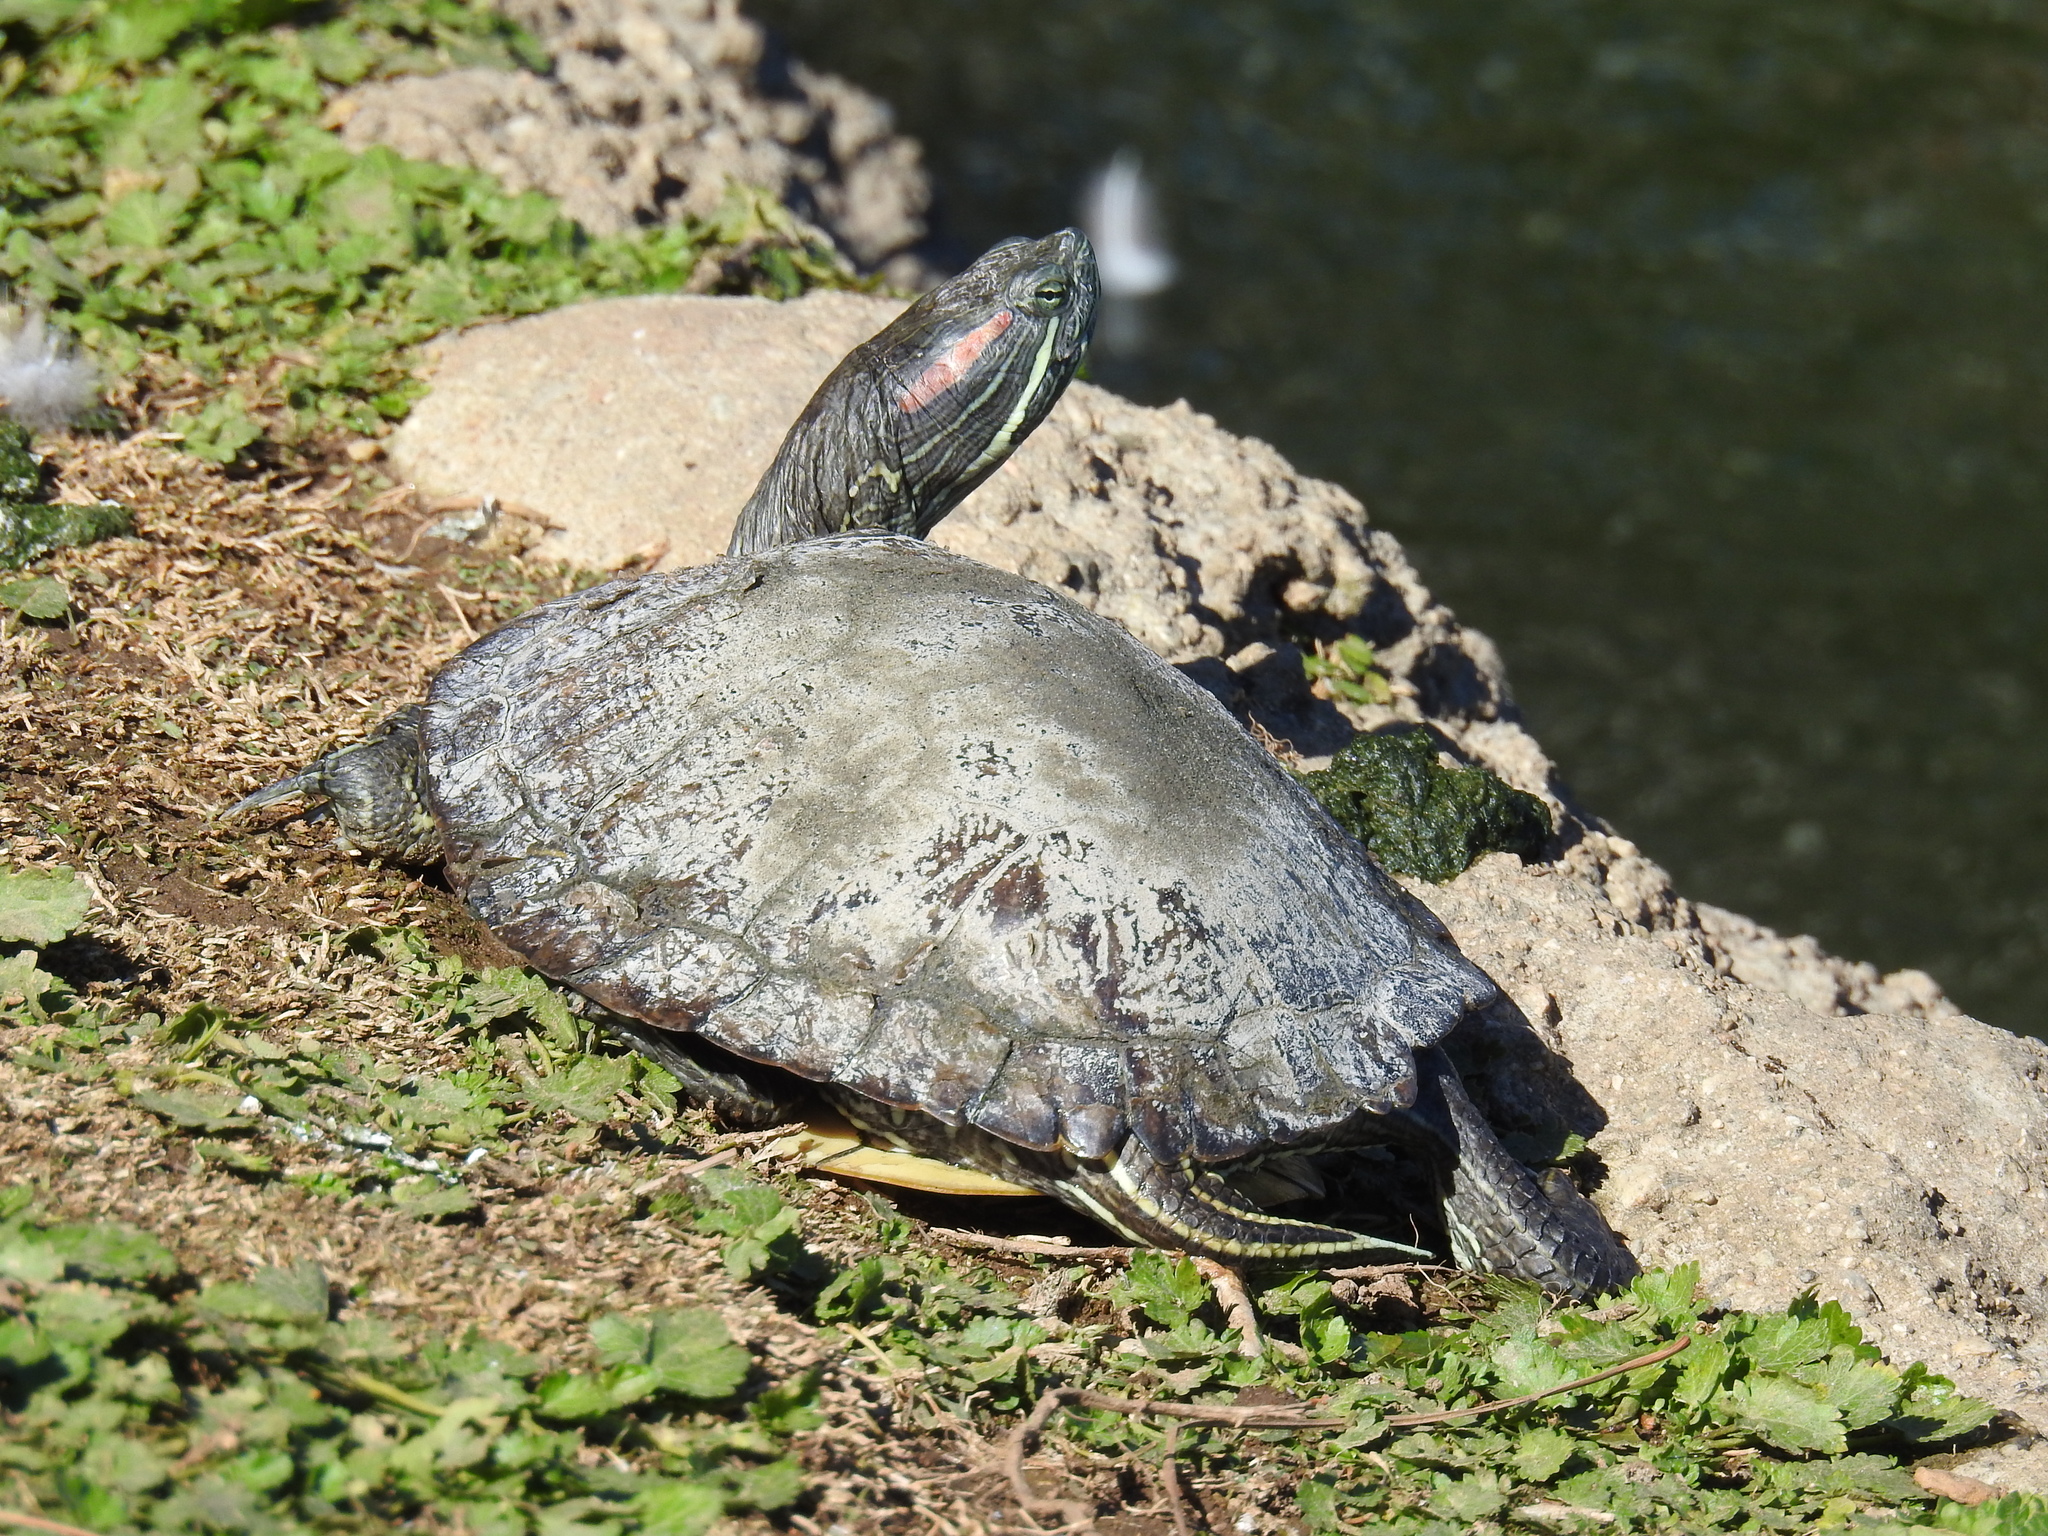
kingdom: Animalia
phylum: Chordata
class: Testudines
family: Emydidae
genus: Trachemys
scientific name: Trachemys scripta
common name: Slider
